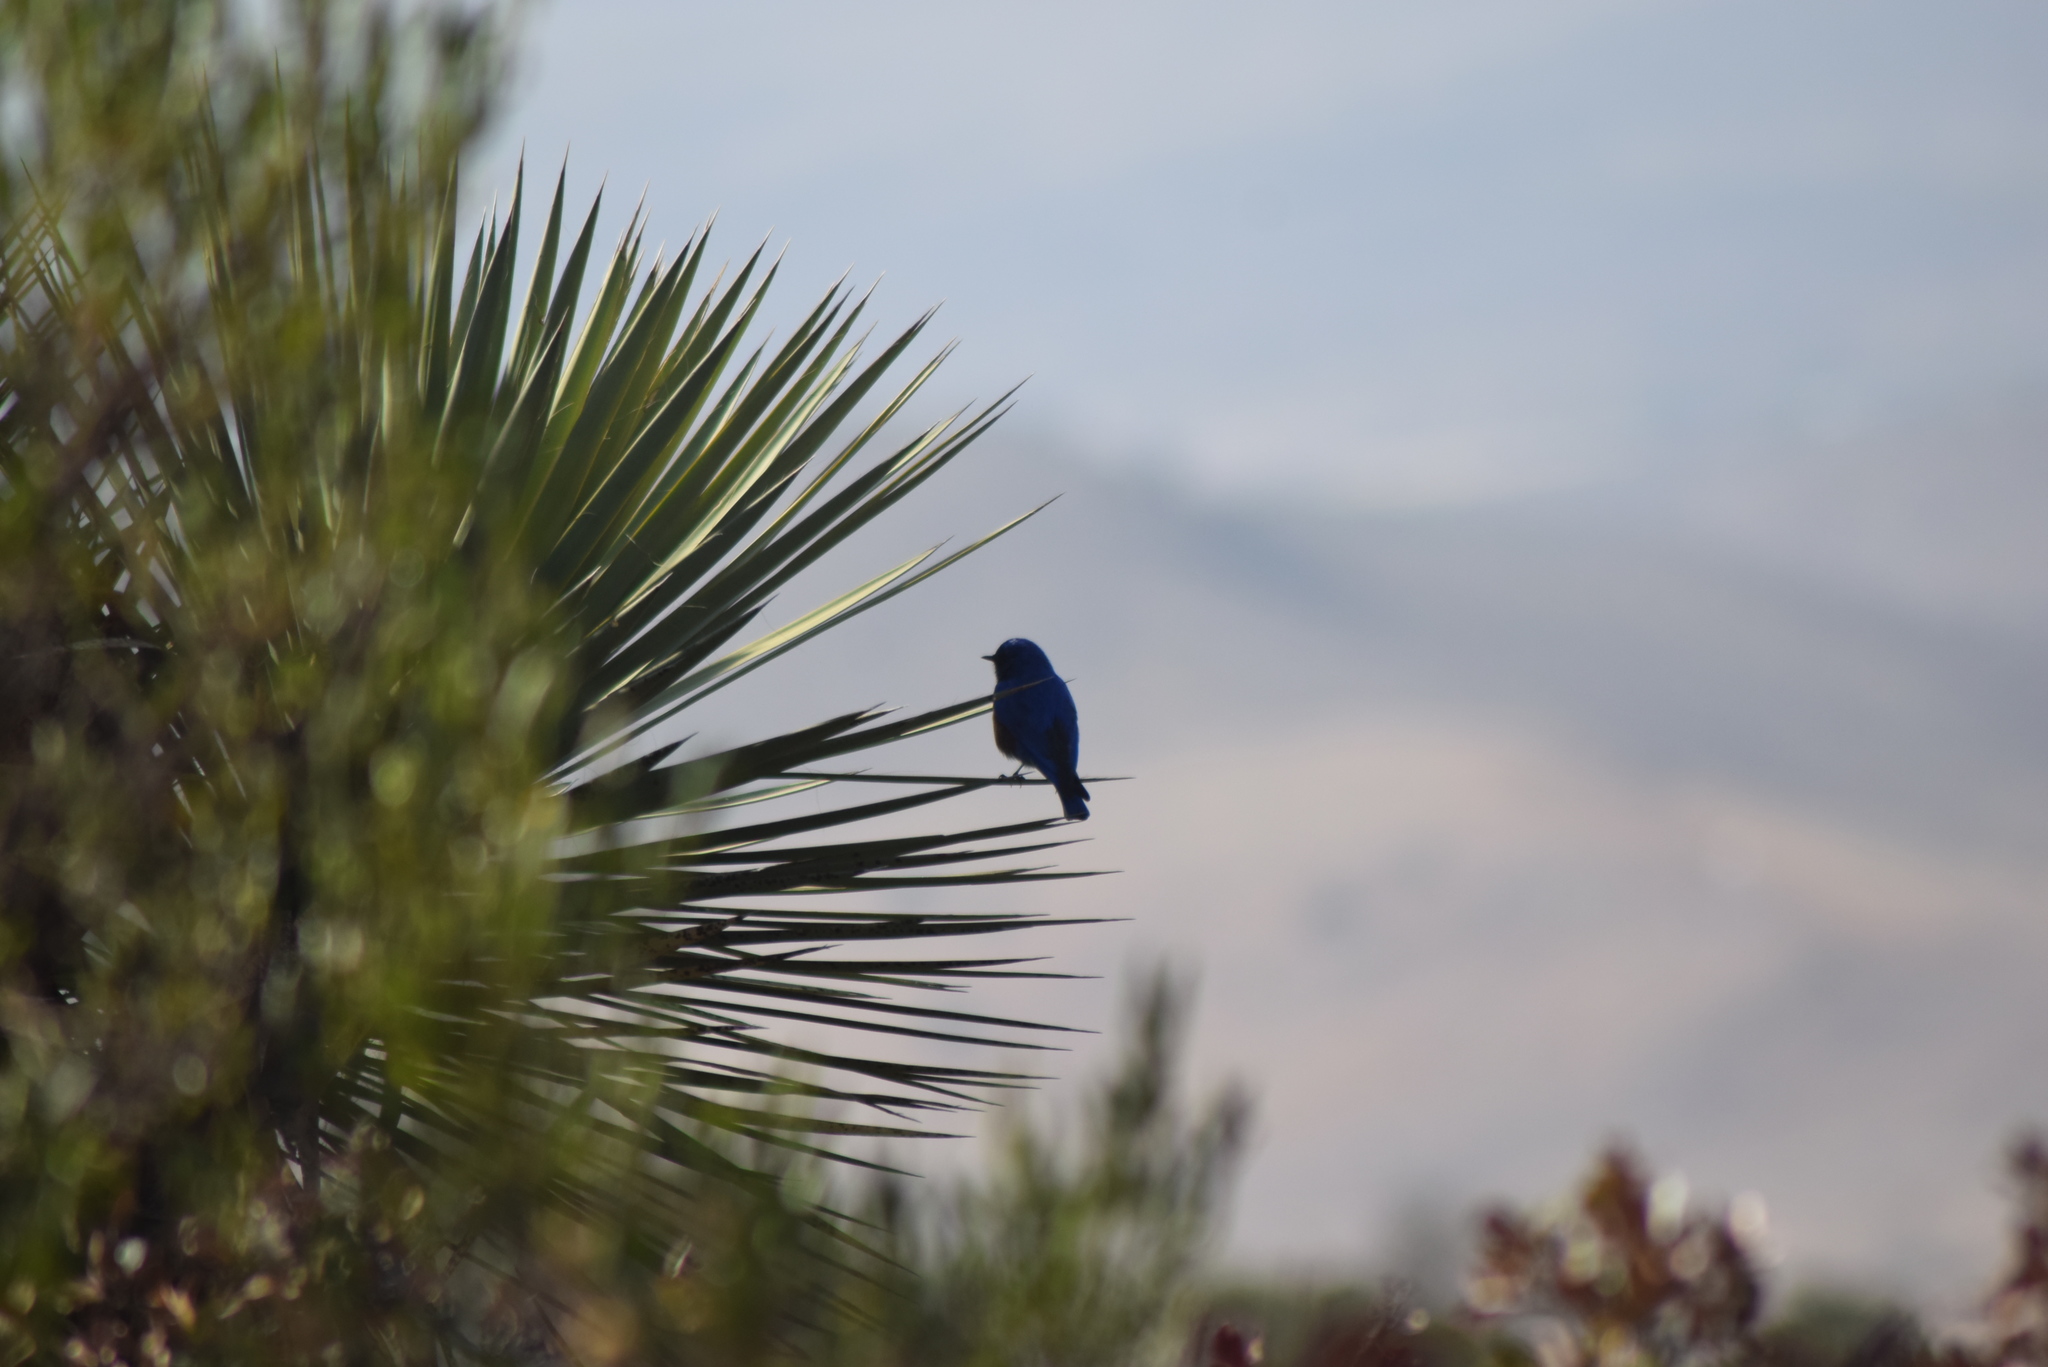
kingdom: Animalia
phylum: Chordata
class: Aves
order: Passeriformes
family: Turdidae
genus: Sialia
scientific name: Sialia mexicana
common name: Western bluebird
